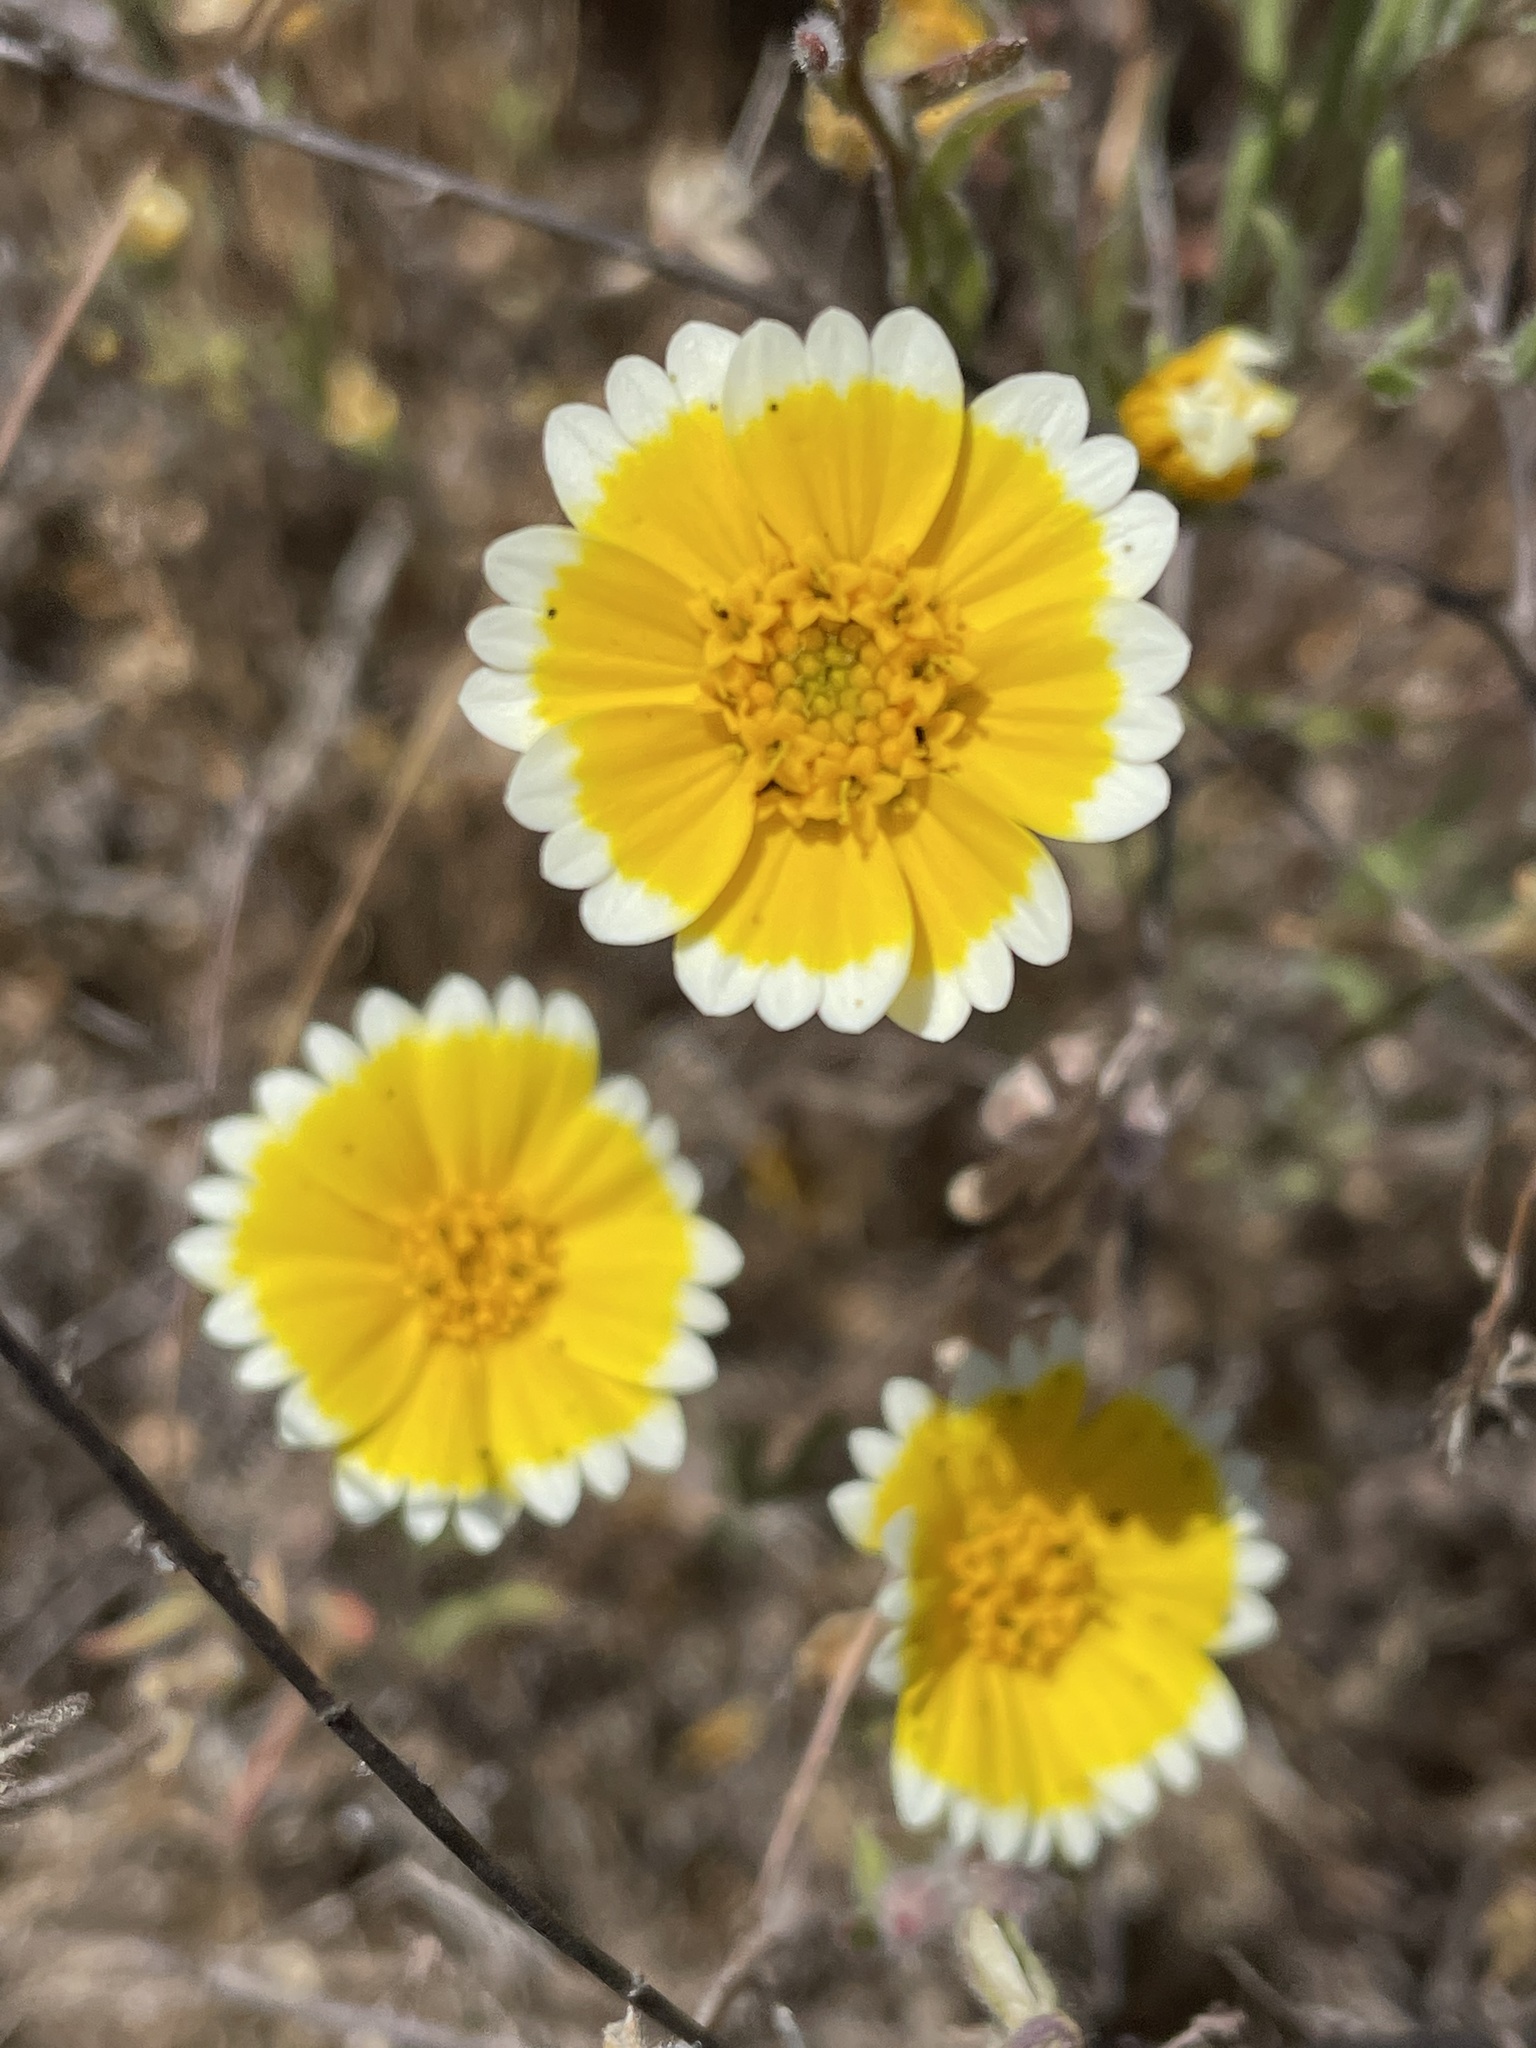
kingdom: Plantae
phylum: Tracheophyta
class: Magnoliopsida
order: Asterales
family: Asteraceae
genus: Layia
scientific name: Layia platyglossa
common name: Tidy-tips
